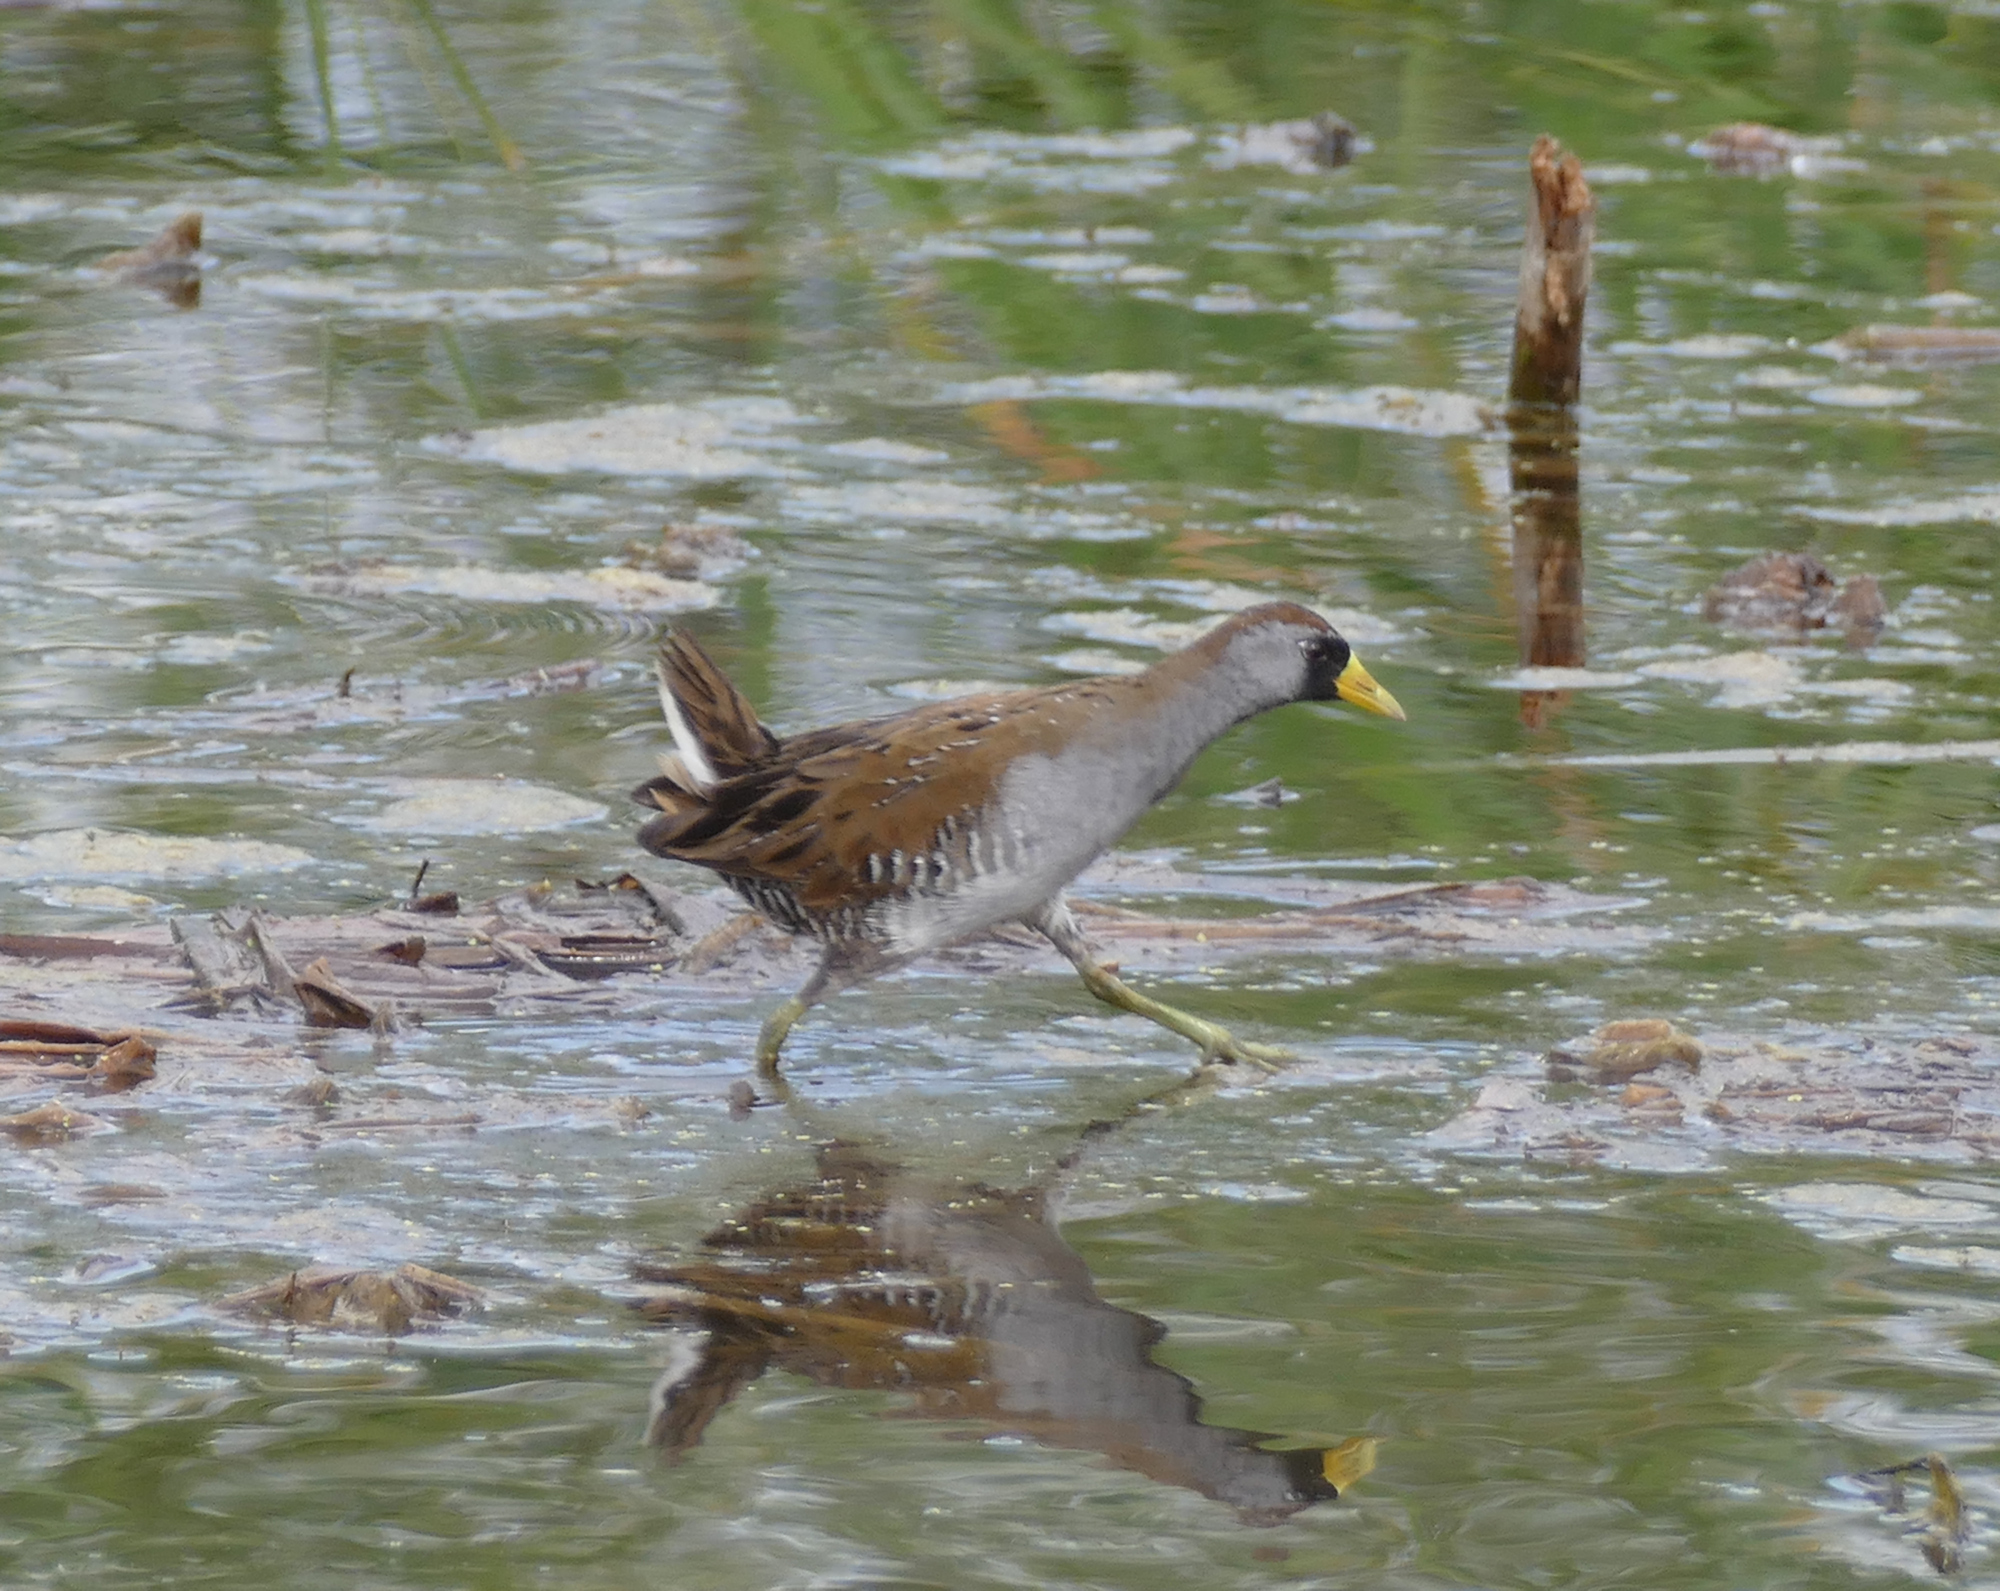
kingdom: Animalia
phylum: Chordata
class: Aves
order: Gruiformes
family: Rallidae
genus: Porzana
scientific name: Porzana carolina
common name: Sora
